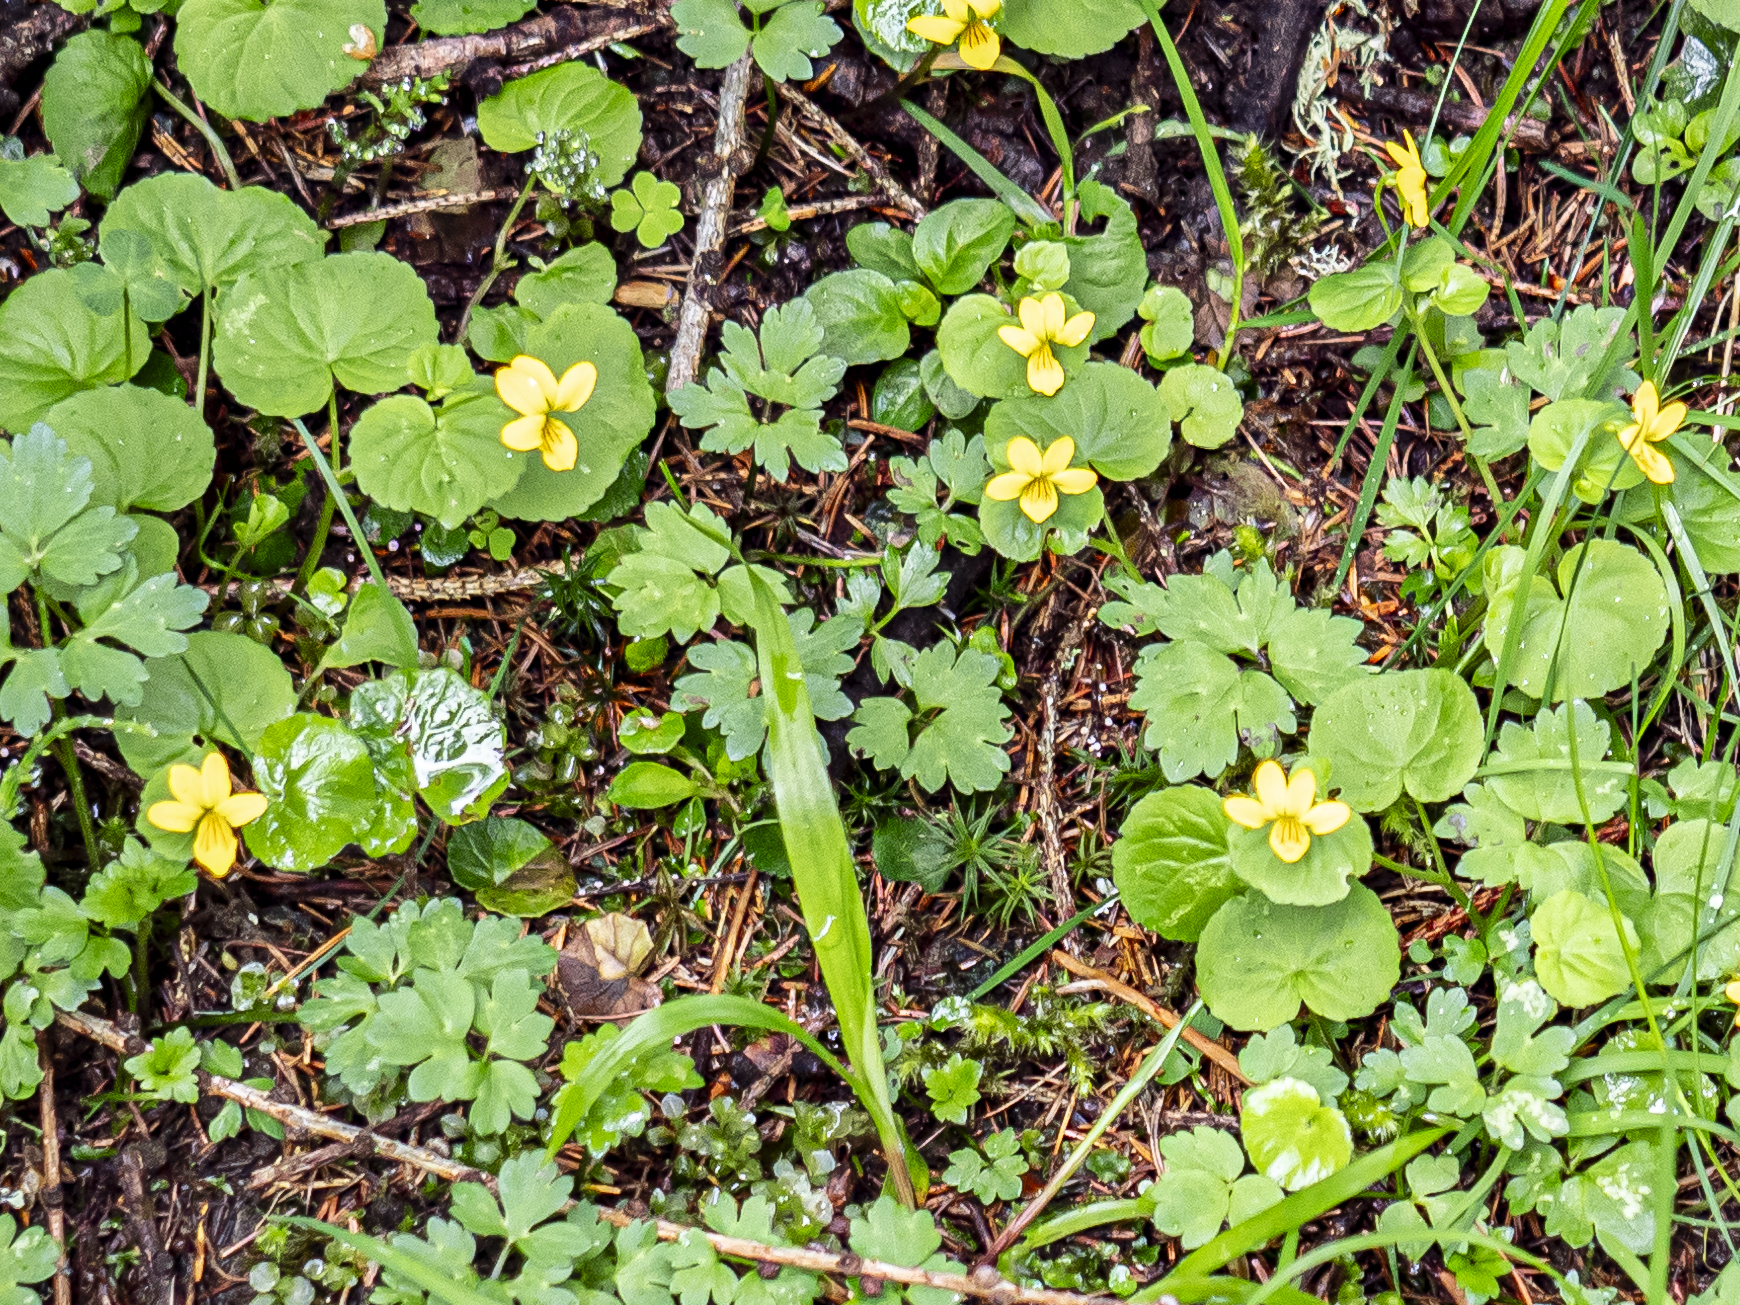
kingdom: Plantae
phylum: Tracheophyta
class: Magnoliopsida
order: Malpighiales
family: Violaceae
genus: Viola
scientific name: Viola biflora
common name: Alpine yellow violet
